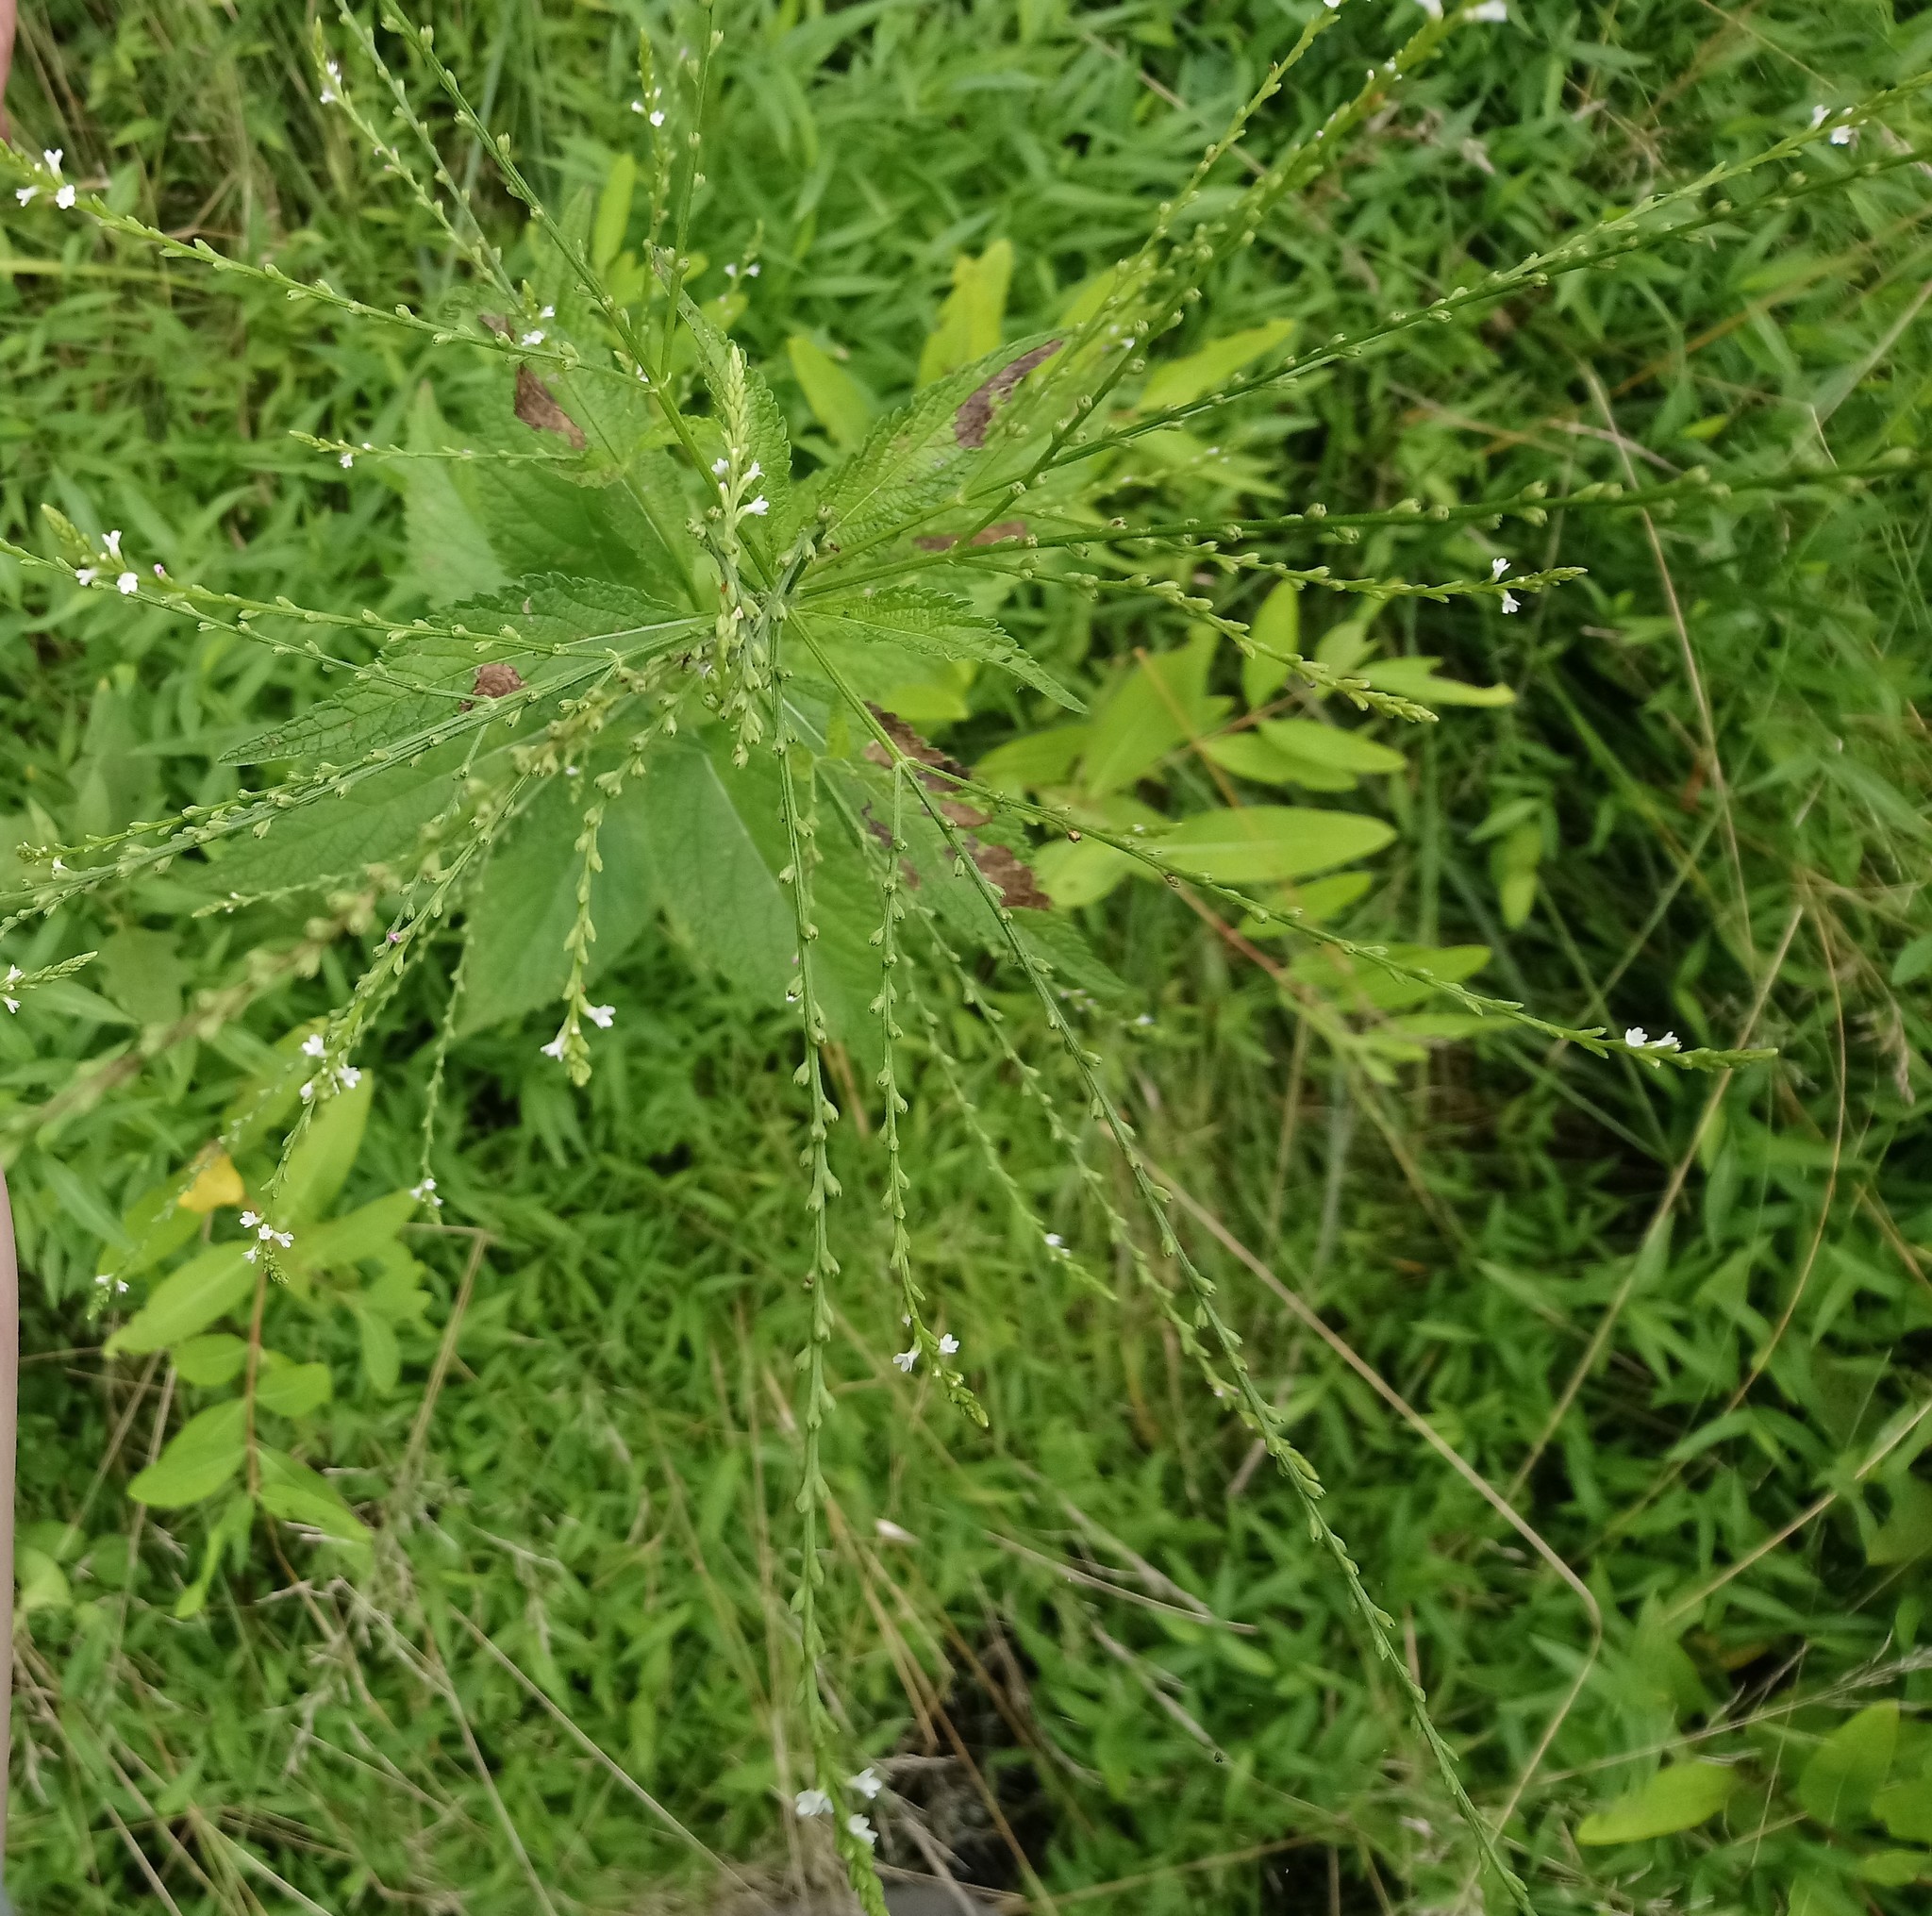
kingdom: Plantae
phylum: Tracheophyta
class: Magnoliopsida
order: Lamiales
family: Verbenaceae
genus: Verbena
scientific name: Verbena urticifolia
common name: Nettle-leaved vervain
